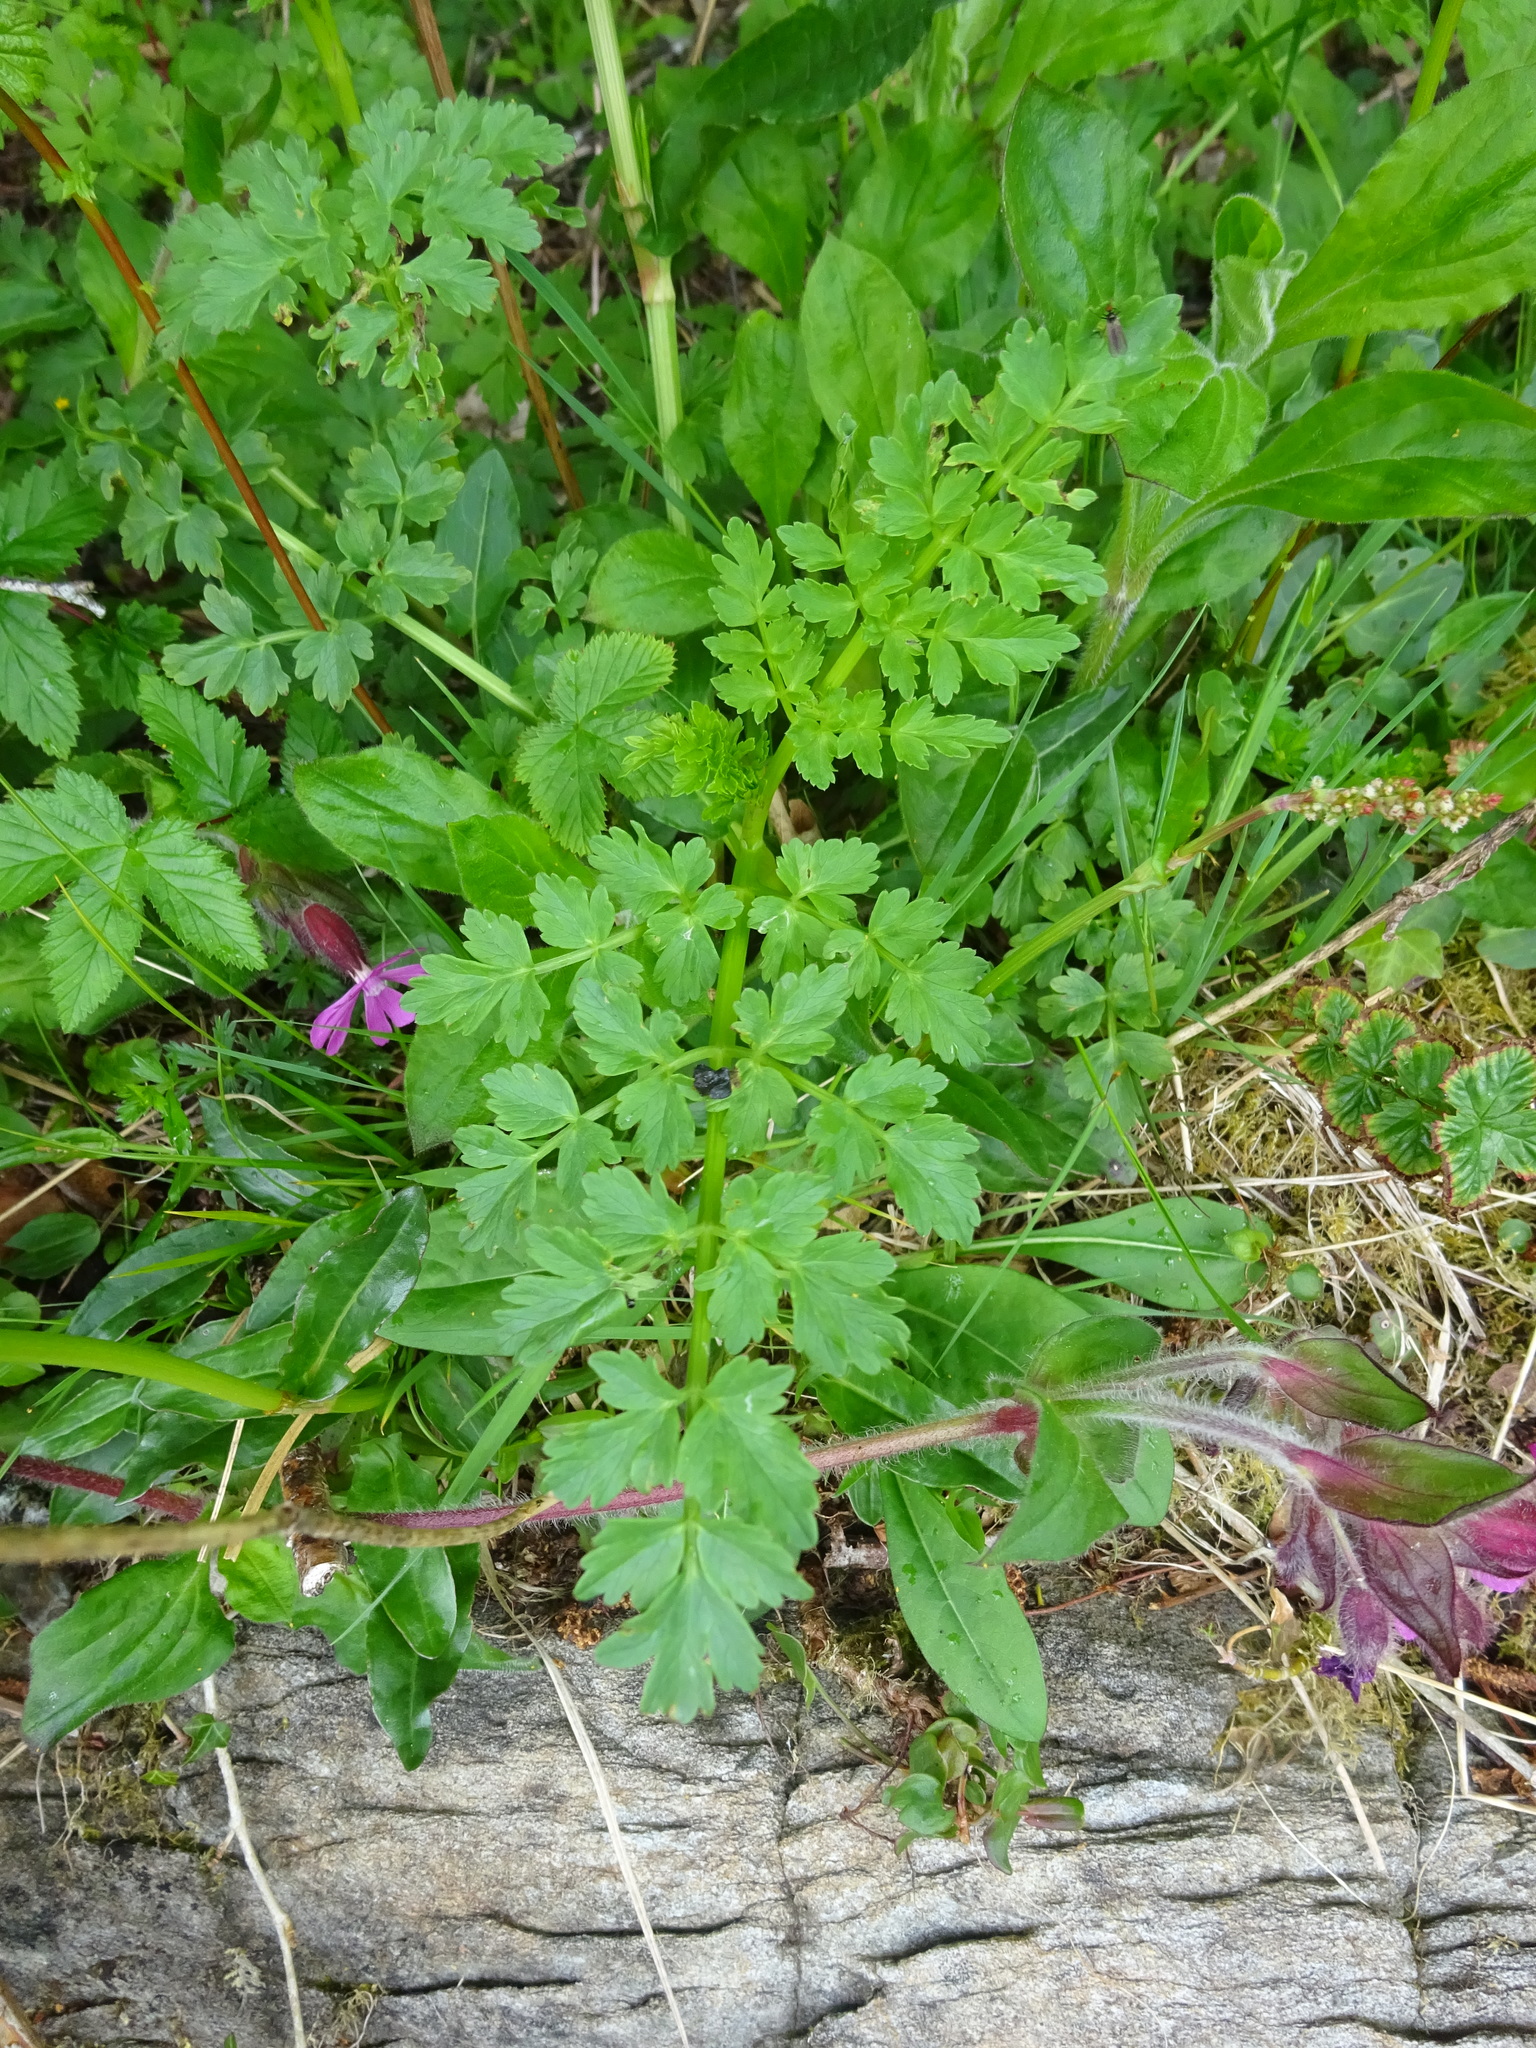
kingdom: Plantae
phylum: Tracheophyta
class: Magnoliopsida
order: Apiales
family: Apiaceae
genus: Oenanthe
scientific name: Oenanthe crocata
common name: Hemlock water-dropwort
